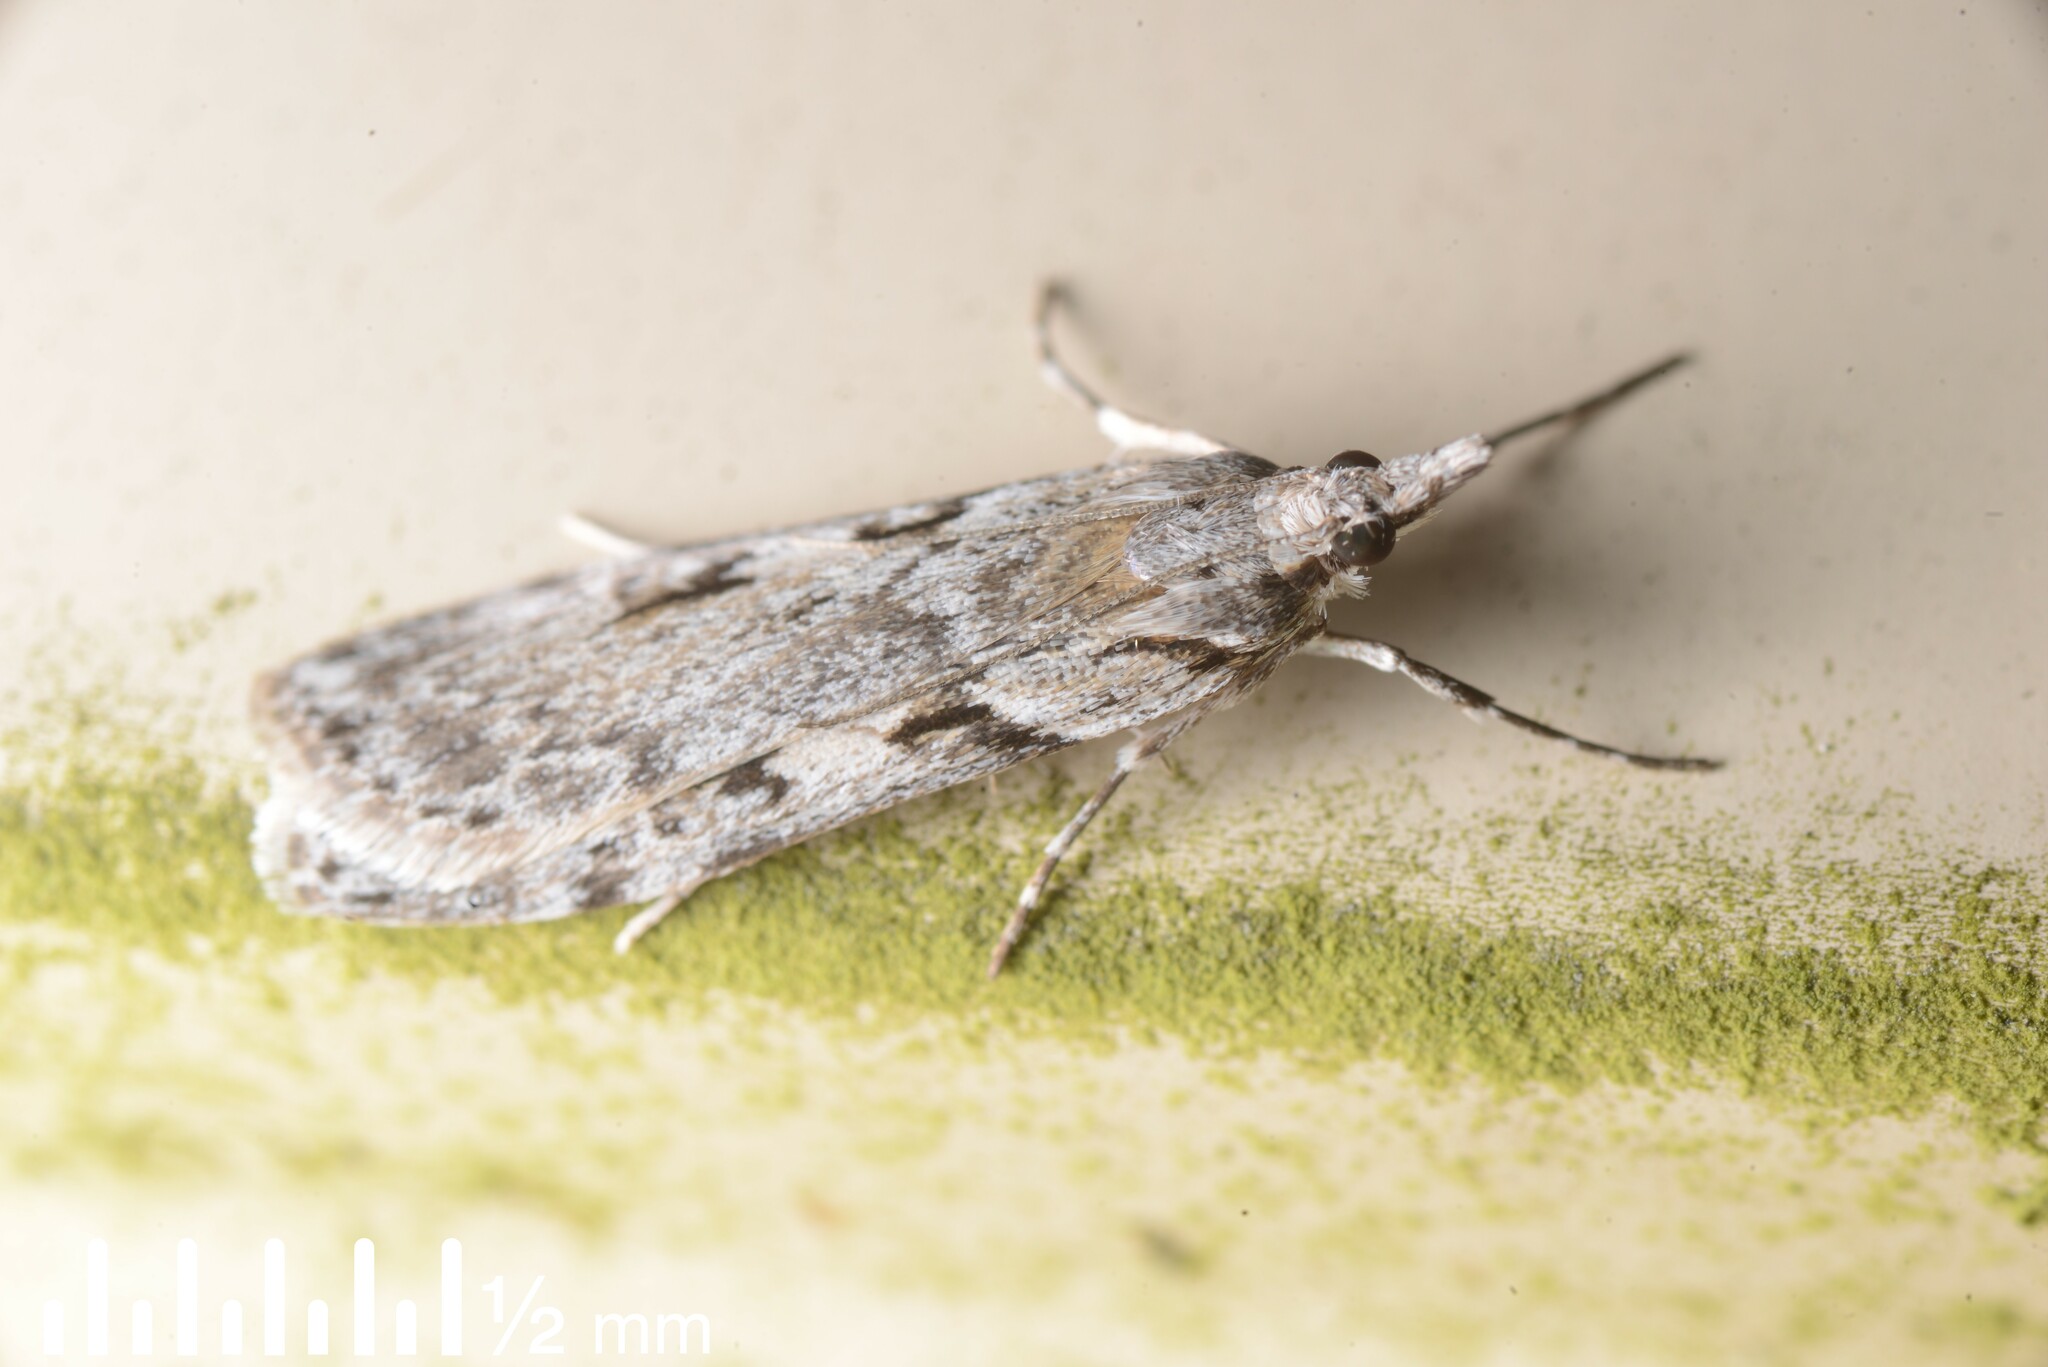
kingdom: Animalia
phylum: Arthropoda
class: Insecta
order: Lepidoptera
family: Crambidae
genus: Scoparia
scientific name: Scoparia halopis
